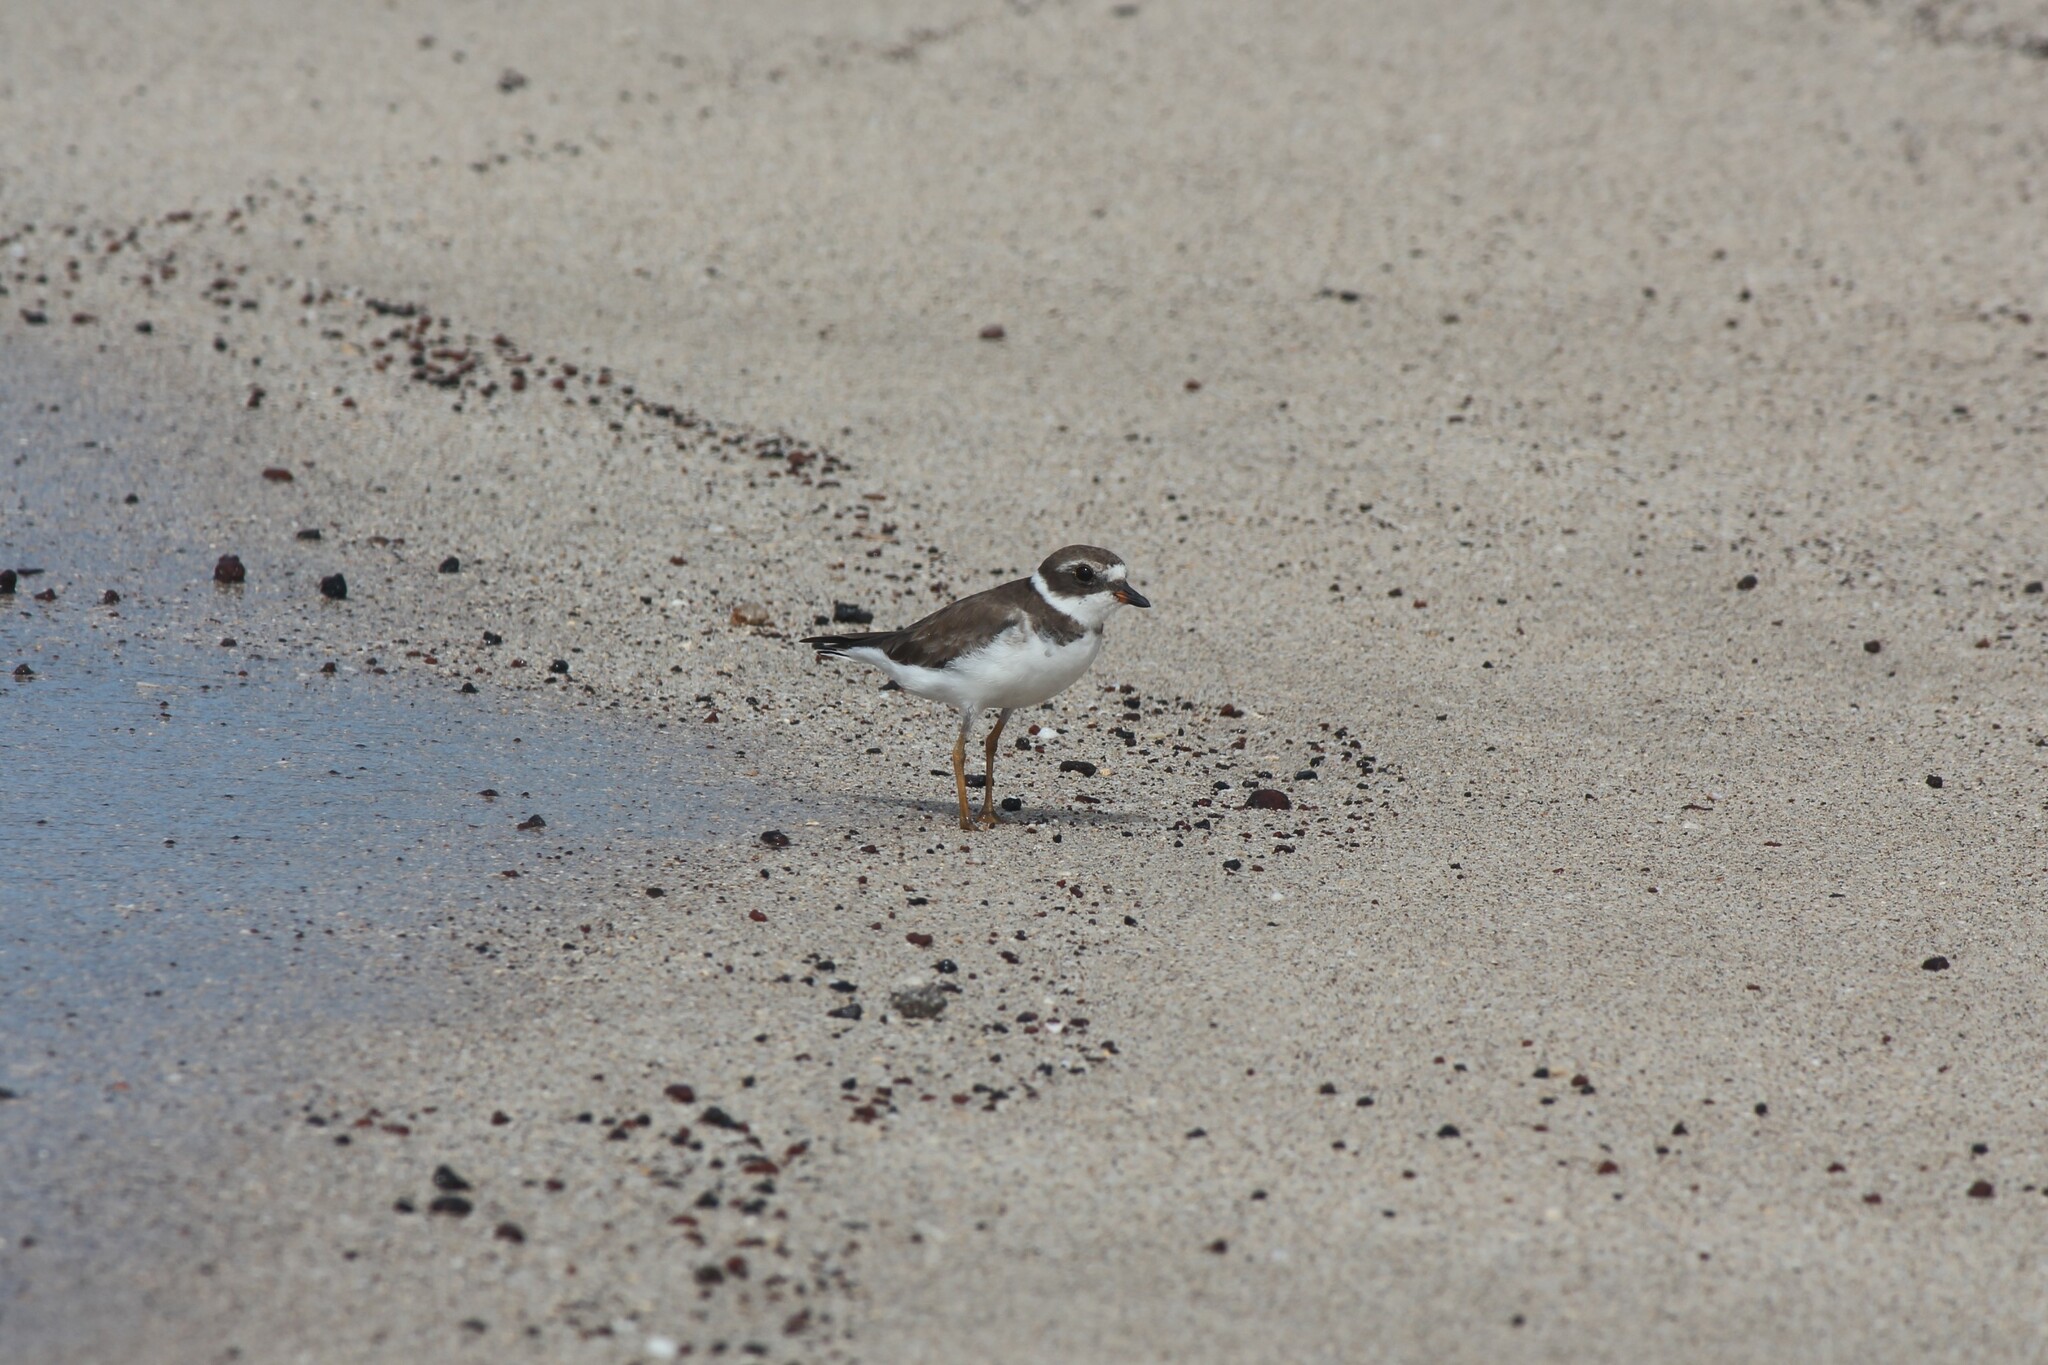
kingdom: Animalia
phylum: Chordata
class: Aves
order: Charadriiformes
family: Charadriidae
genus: Charadrius
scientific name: Charadrius semipalmatus
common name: Semipalmated plover
